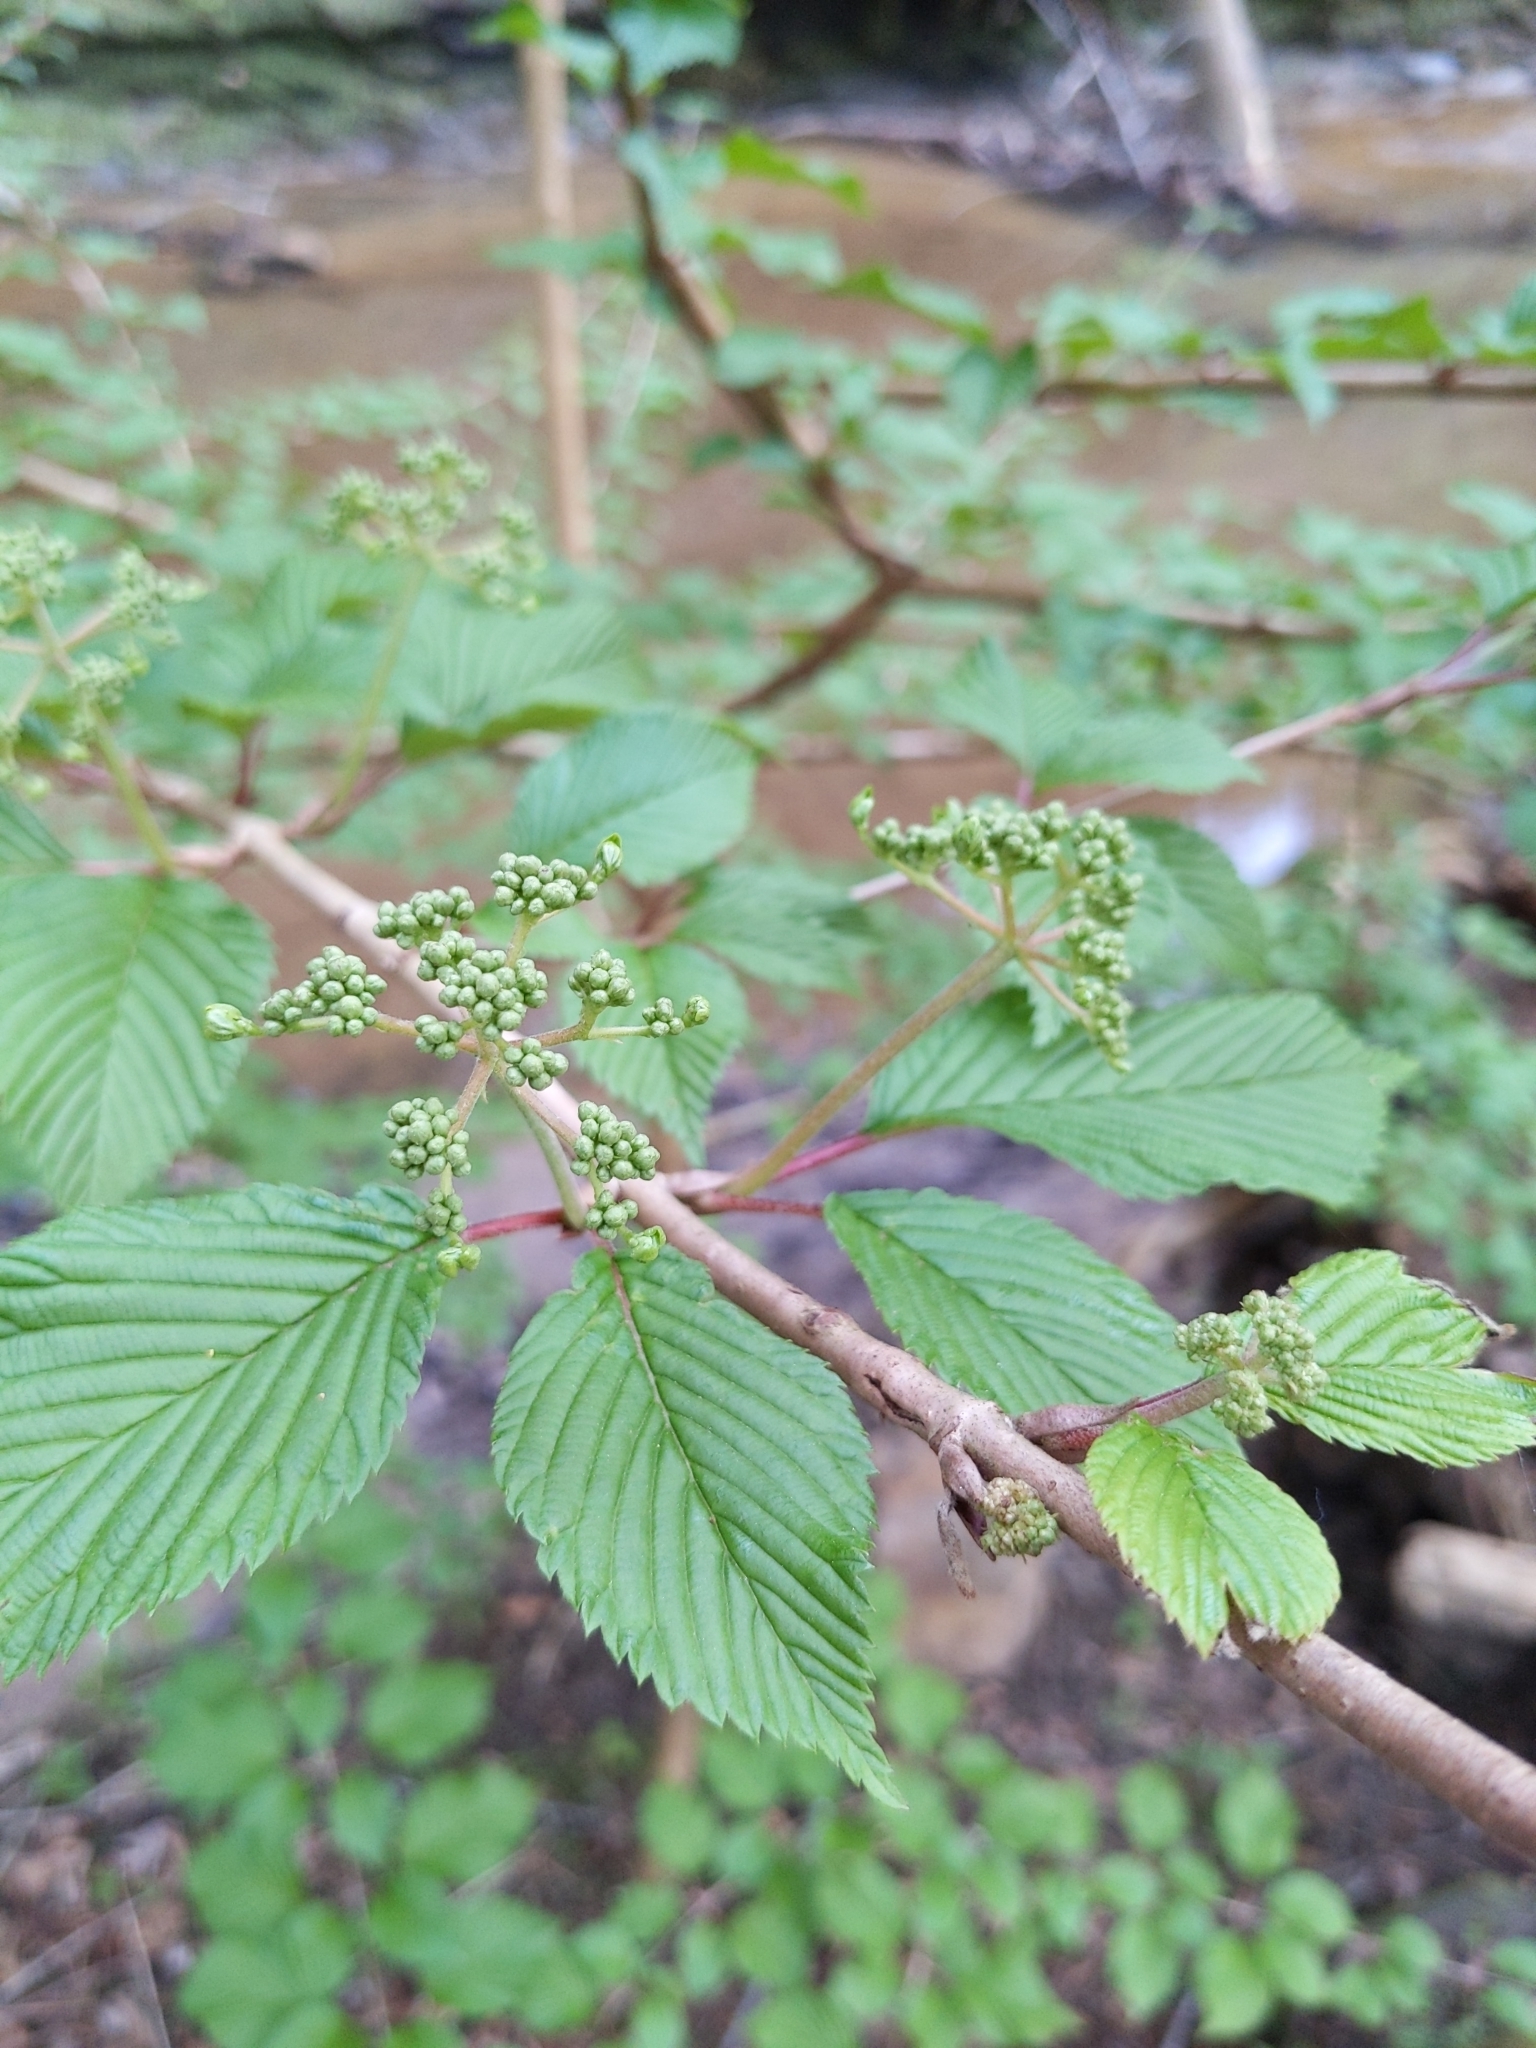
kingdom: Plantae
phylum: Tracheophyta
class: Magnoliopsida
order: Dipsacales
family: Viburnaceae
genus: Viburnum
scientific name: Viburnum plicatum
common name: Japanese snowball
